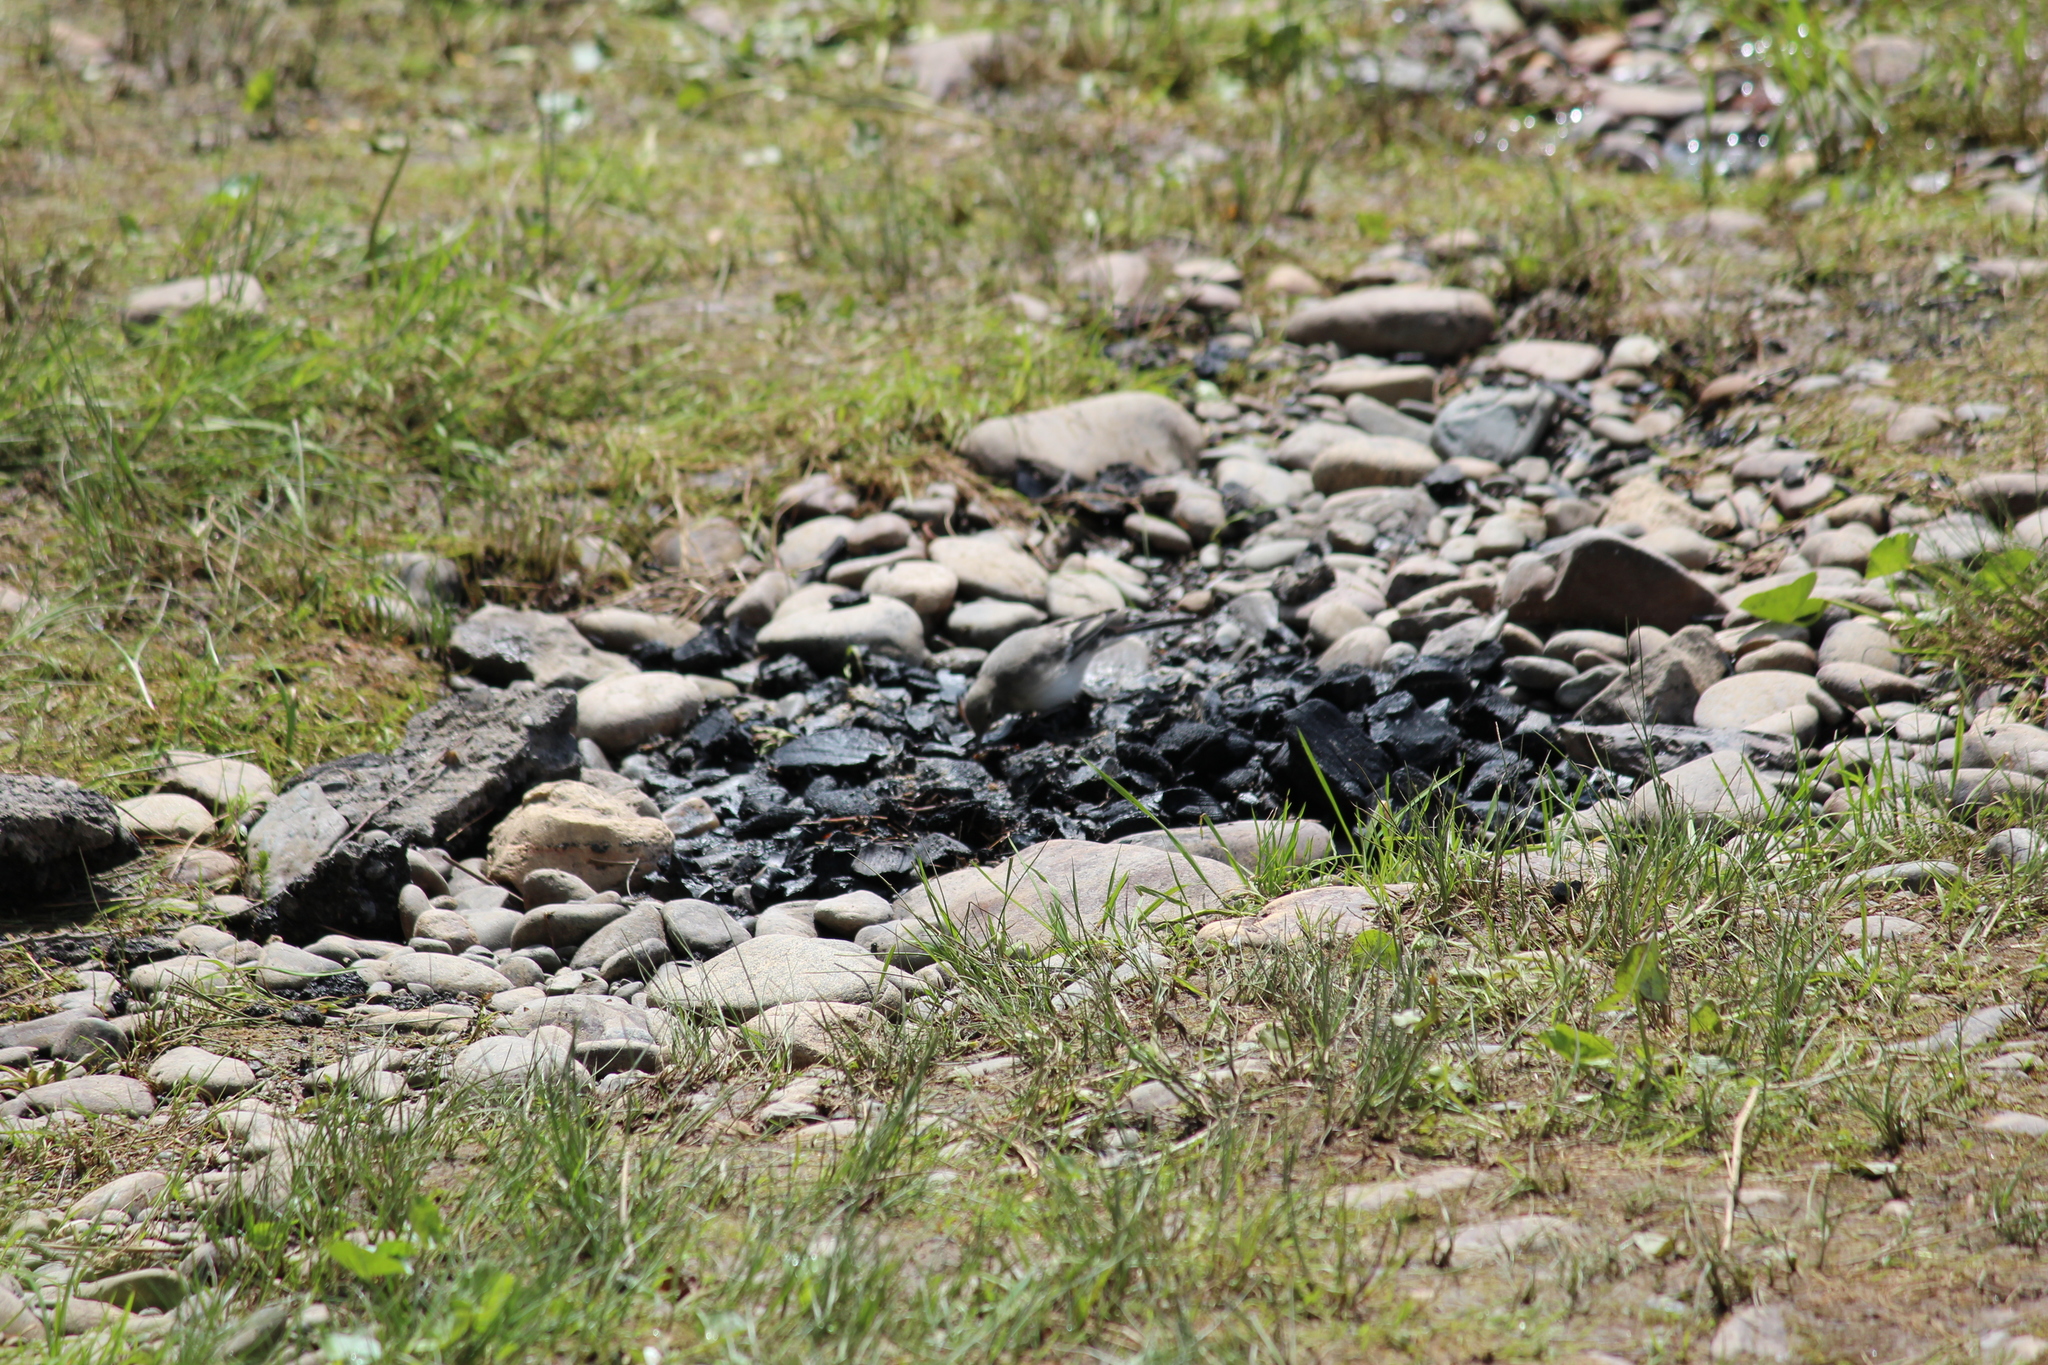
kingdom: Animalia
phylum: Chordata
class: Aves
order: Passeriformes
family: Motacillidae
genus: Motacilla
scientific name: Motacilla alba
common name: White wagtail
